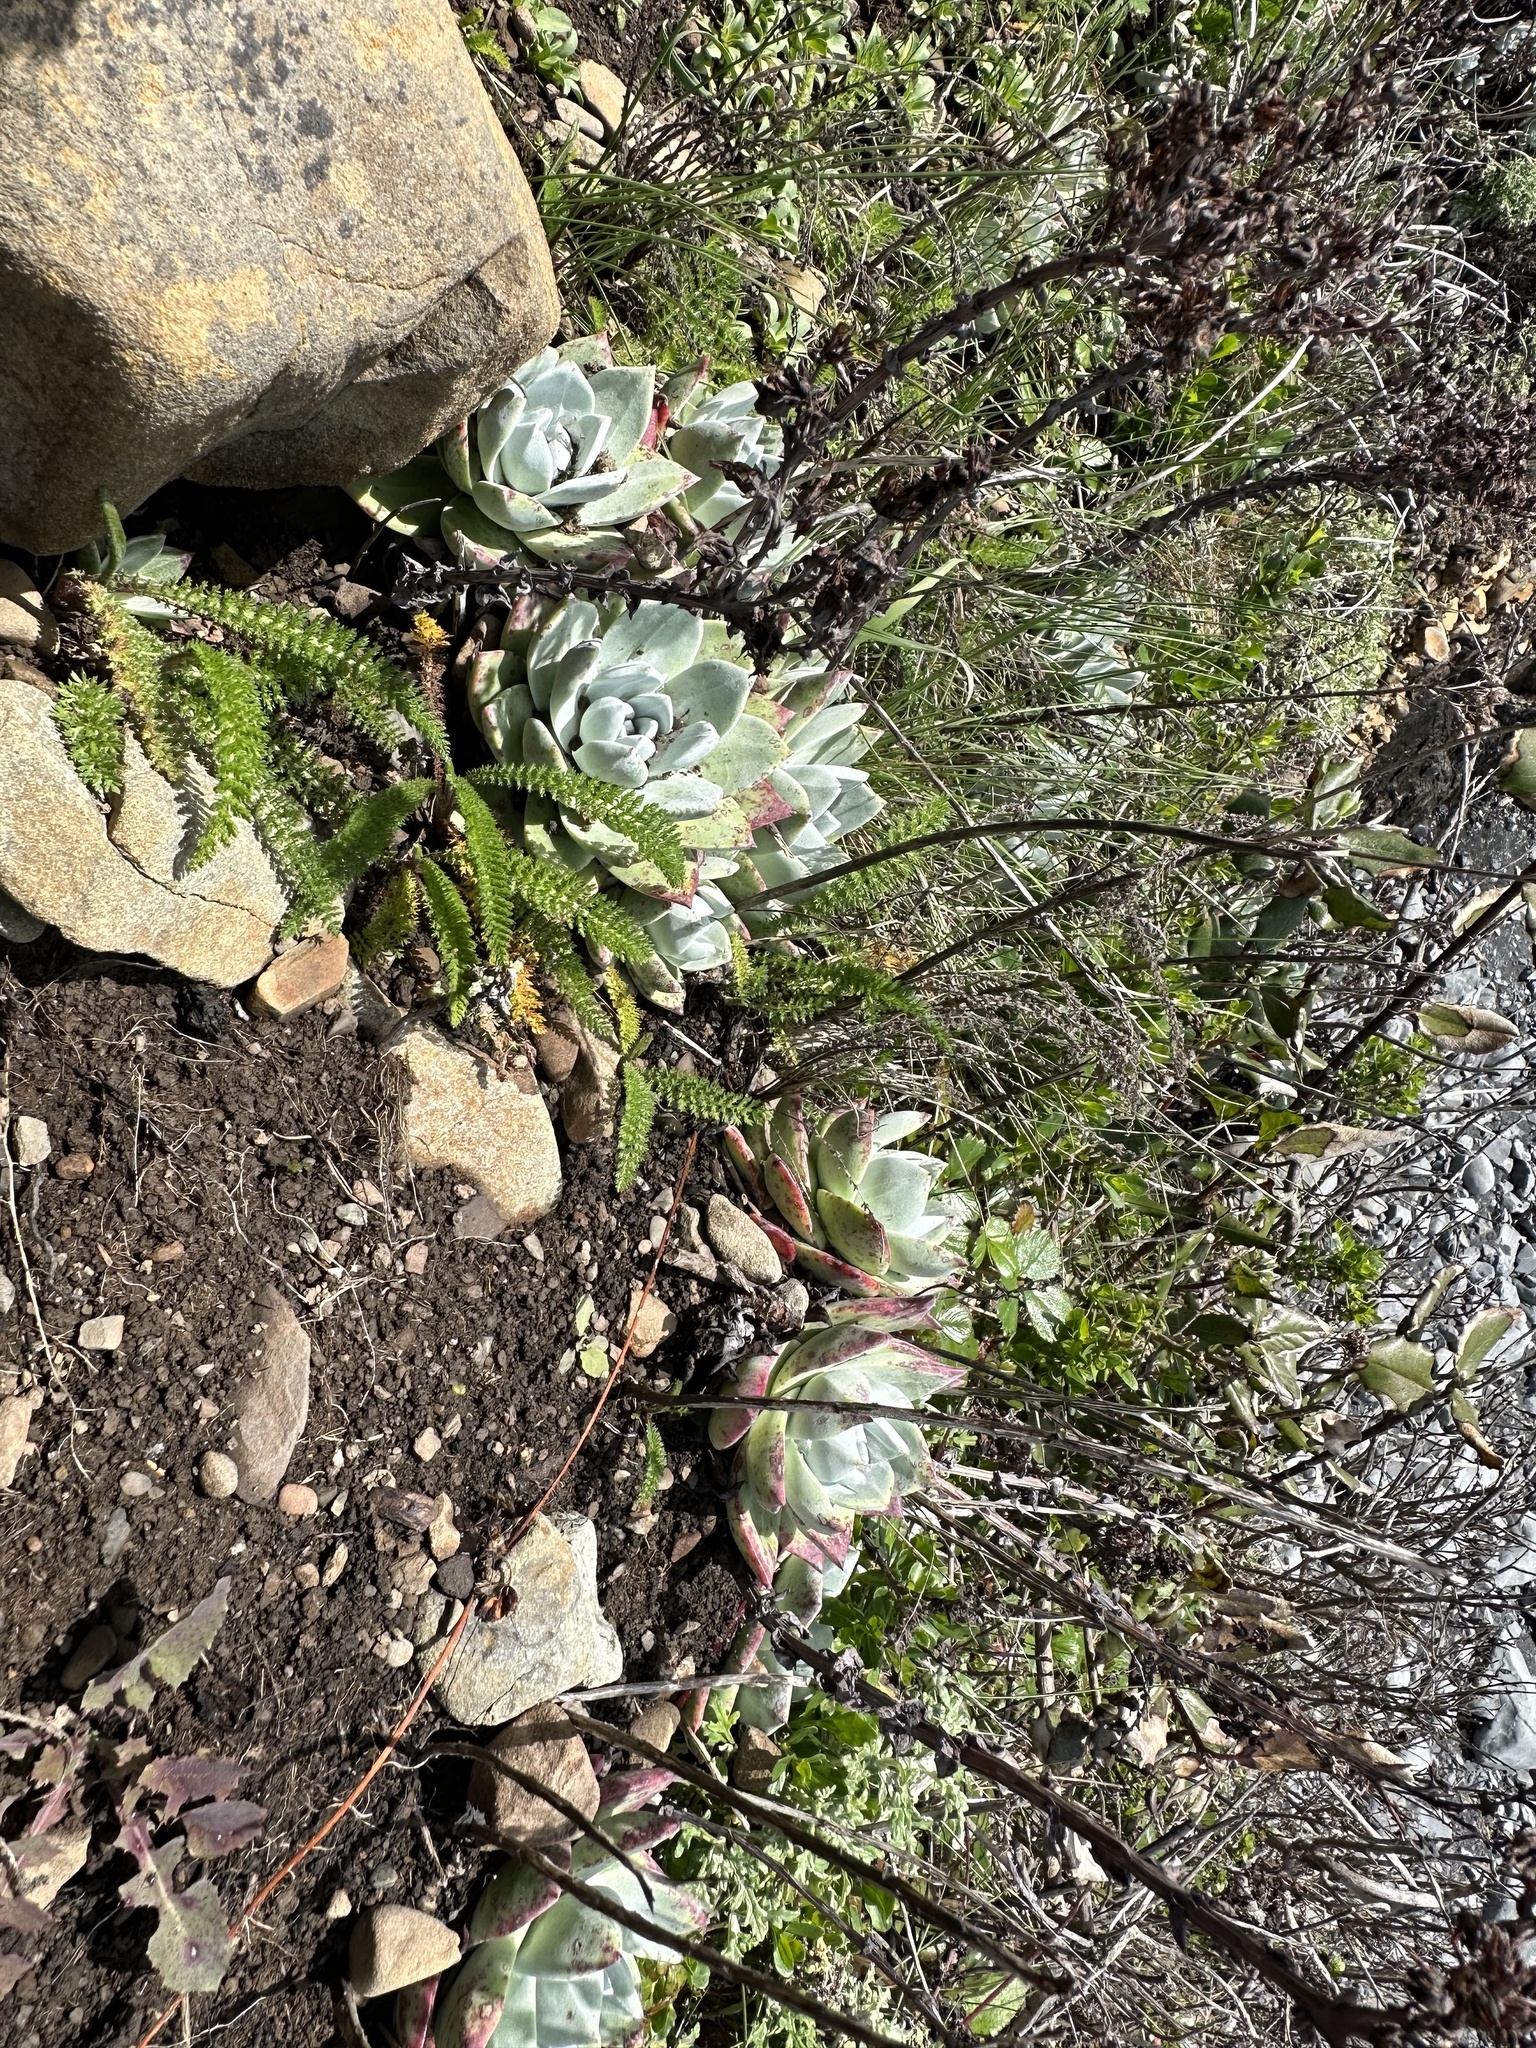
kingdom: Plantae
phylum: Tracheophyta
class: Magnoliopsida
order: Saxifragales
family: Crassulaceae
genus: Dudleya
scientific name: Dudleya farinosa
